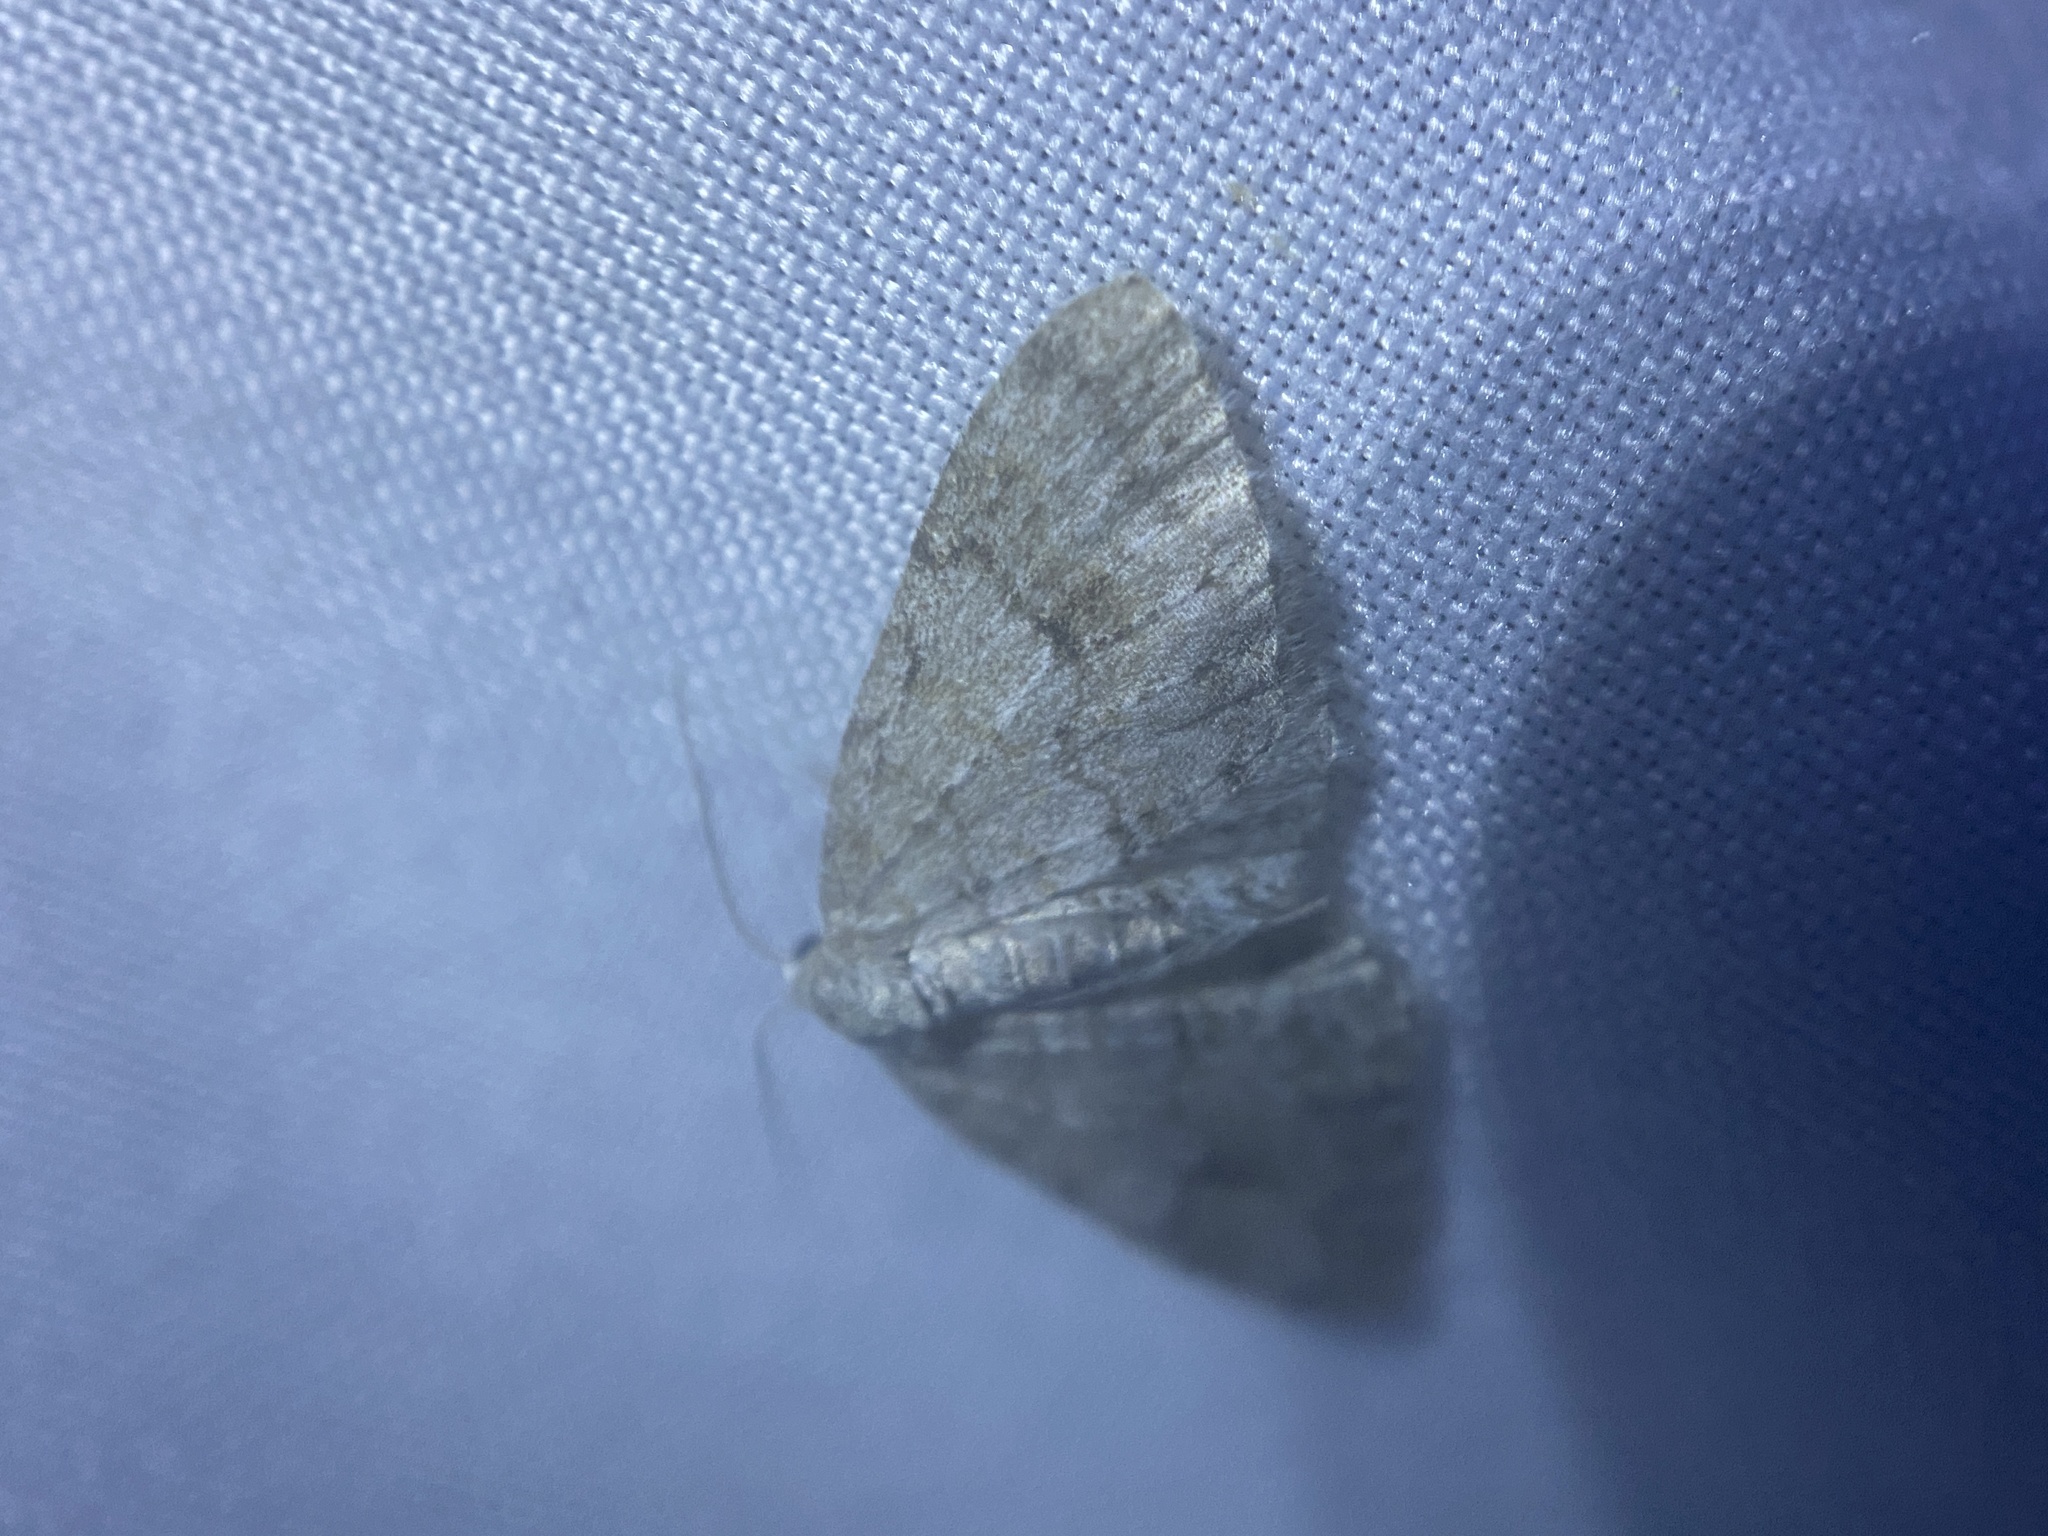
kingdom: Animalia
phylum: Arthropoda
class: Insecta
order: Lepidoptera
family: Geometridae
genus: Venusia
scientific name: Venusia comptaria
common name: Brown-shaded carpet
